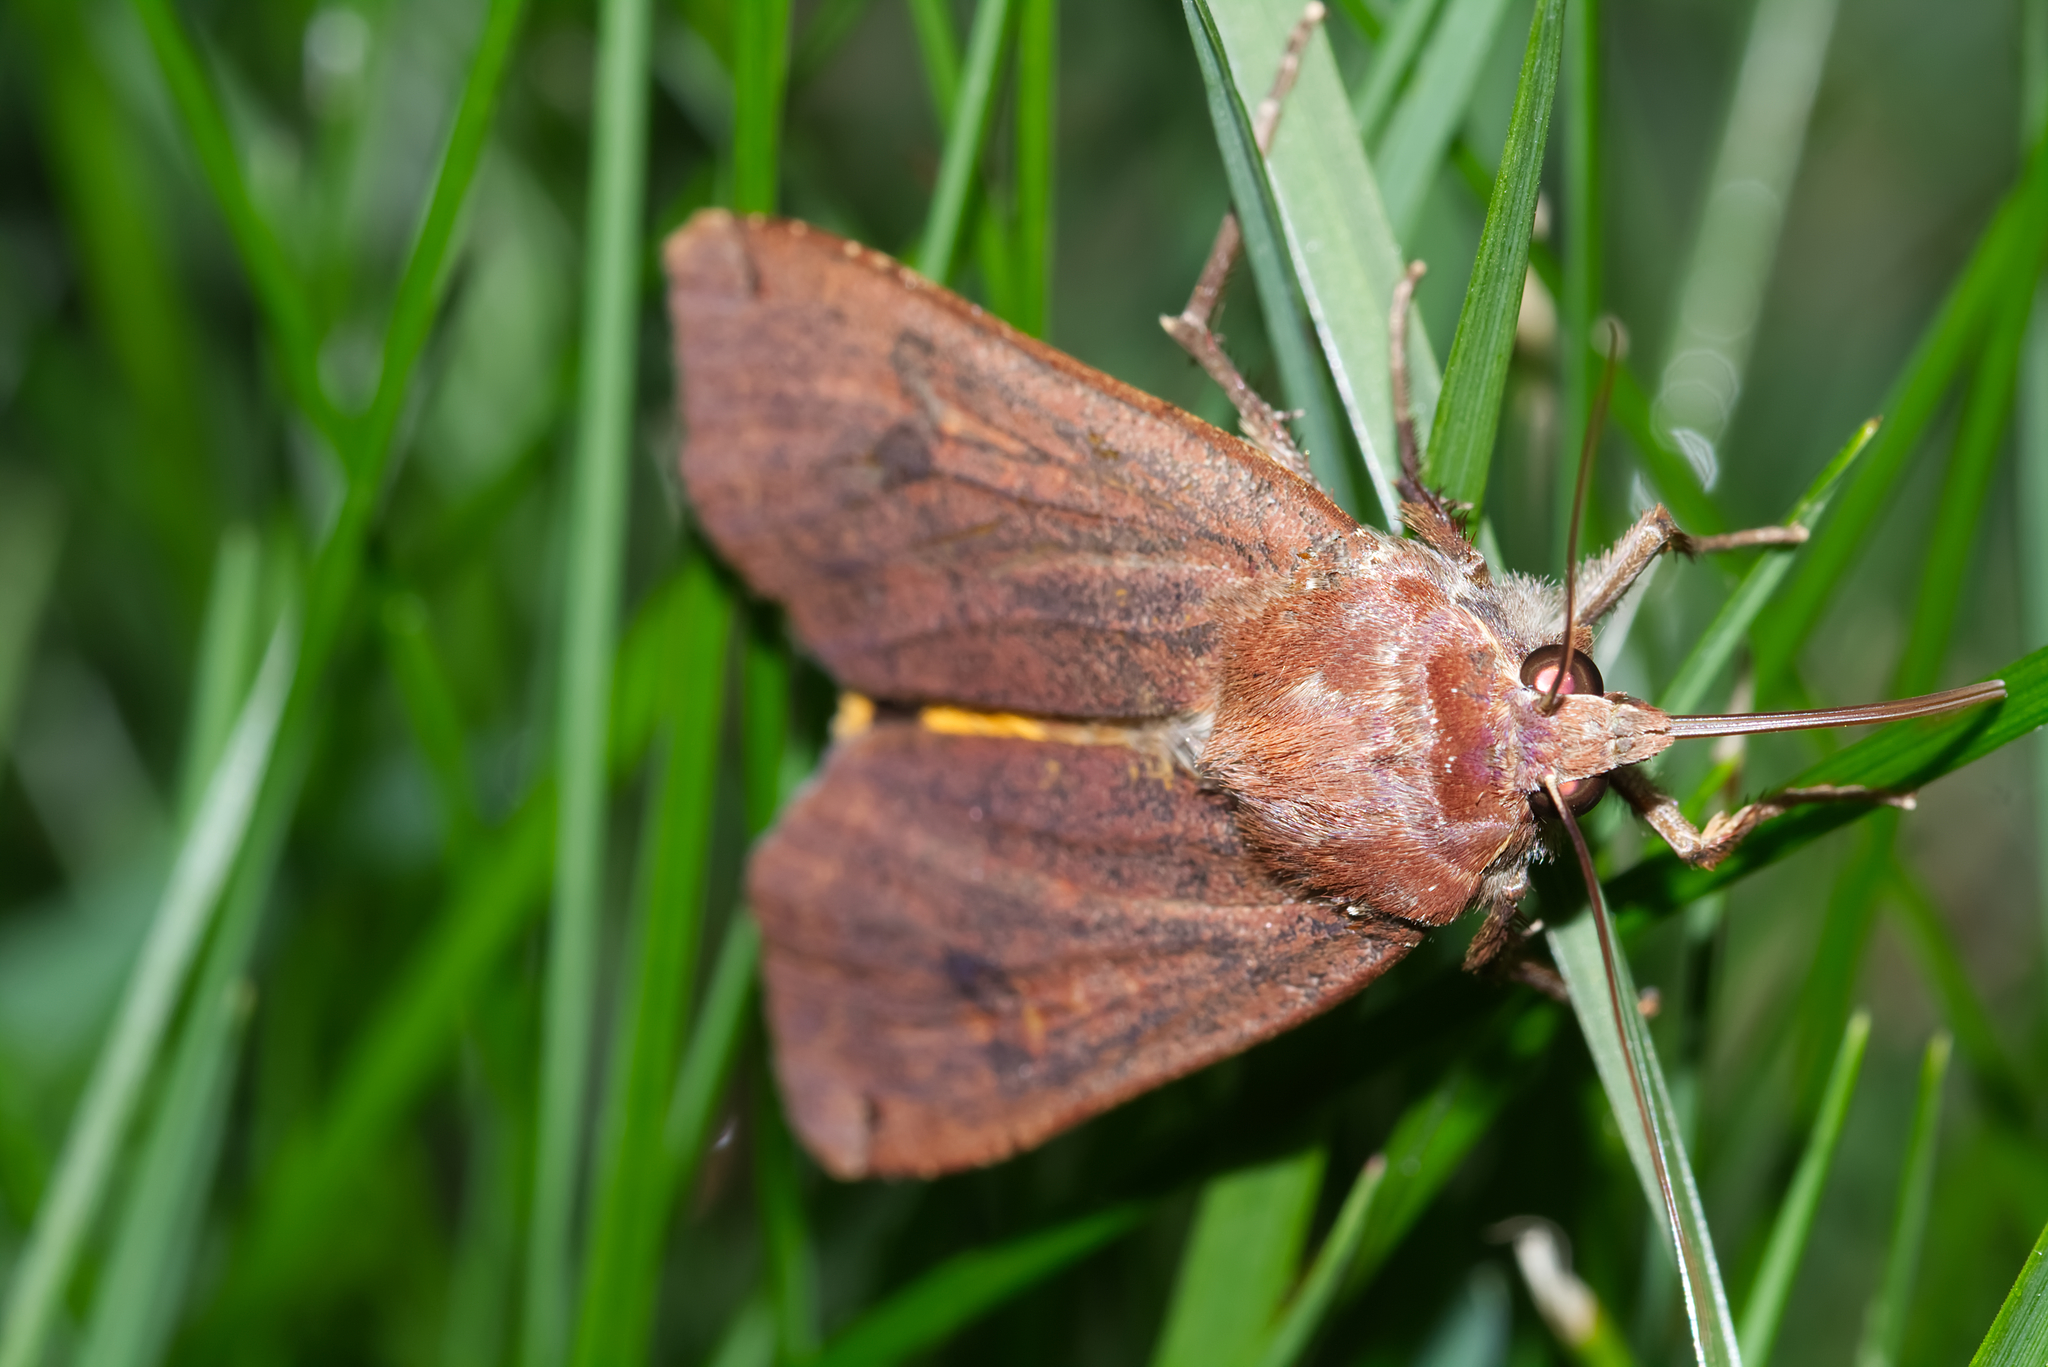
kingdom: Animalia
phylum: Arthropoda
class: Insecta
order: Lepidoptera
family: Noctuidae
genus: Noctua
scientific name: Noctua pronuba
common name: Large yellow underwing
